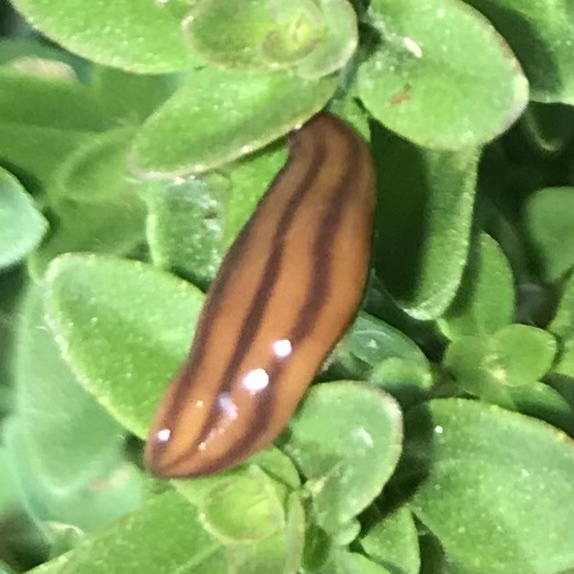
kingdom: Animalia
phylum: Platyhelminthes
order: Tricladida
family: Geoplanidae
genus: Anzoplana
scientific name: Anzoplana trilineata
